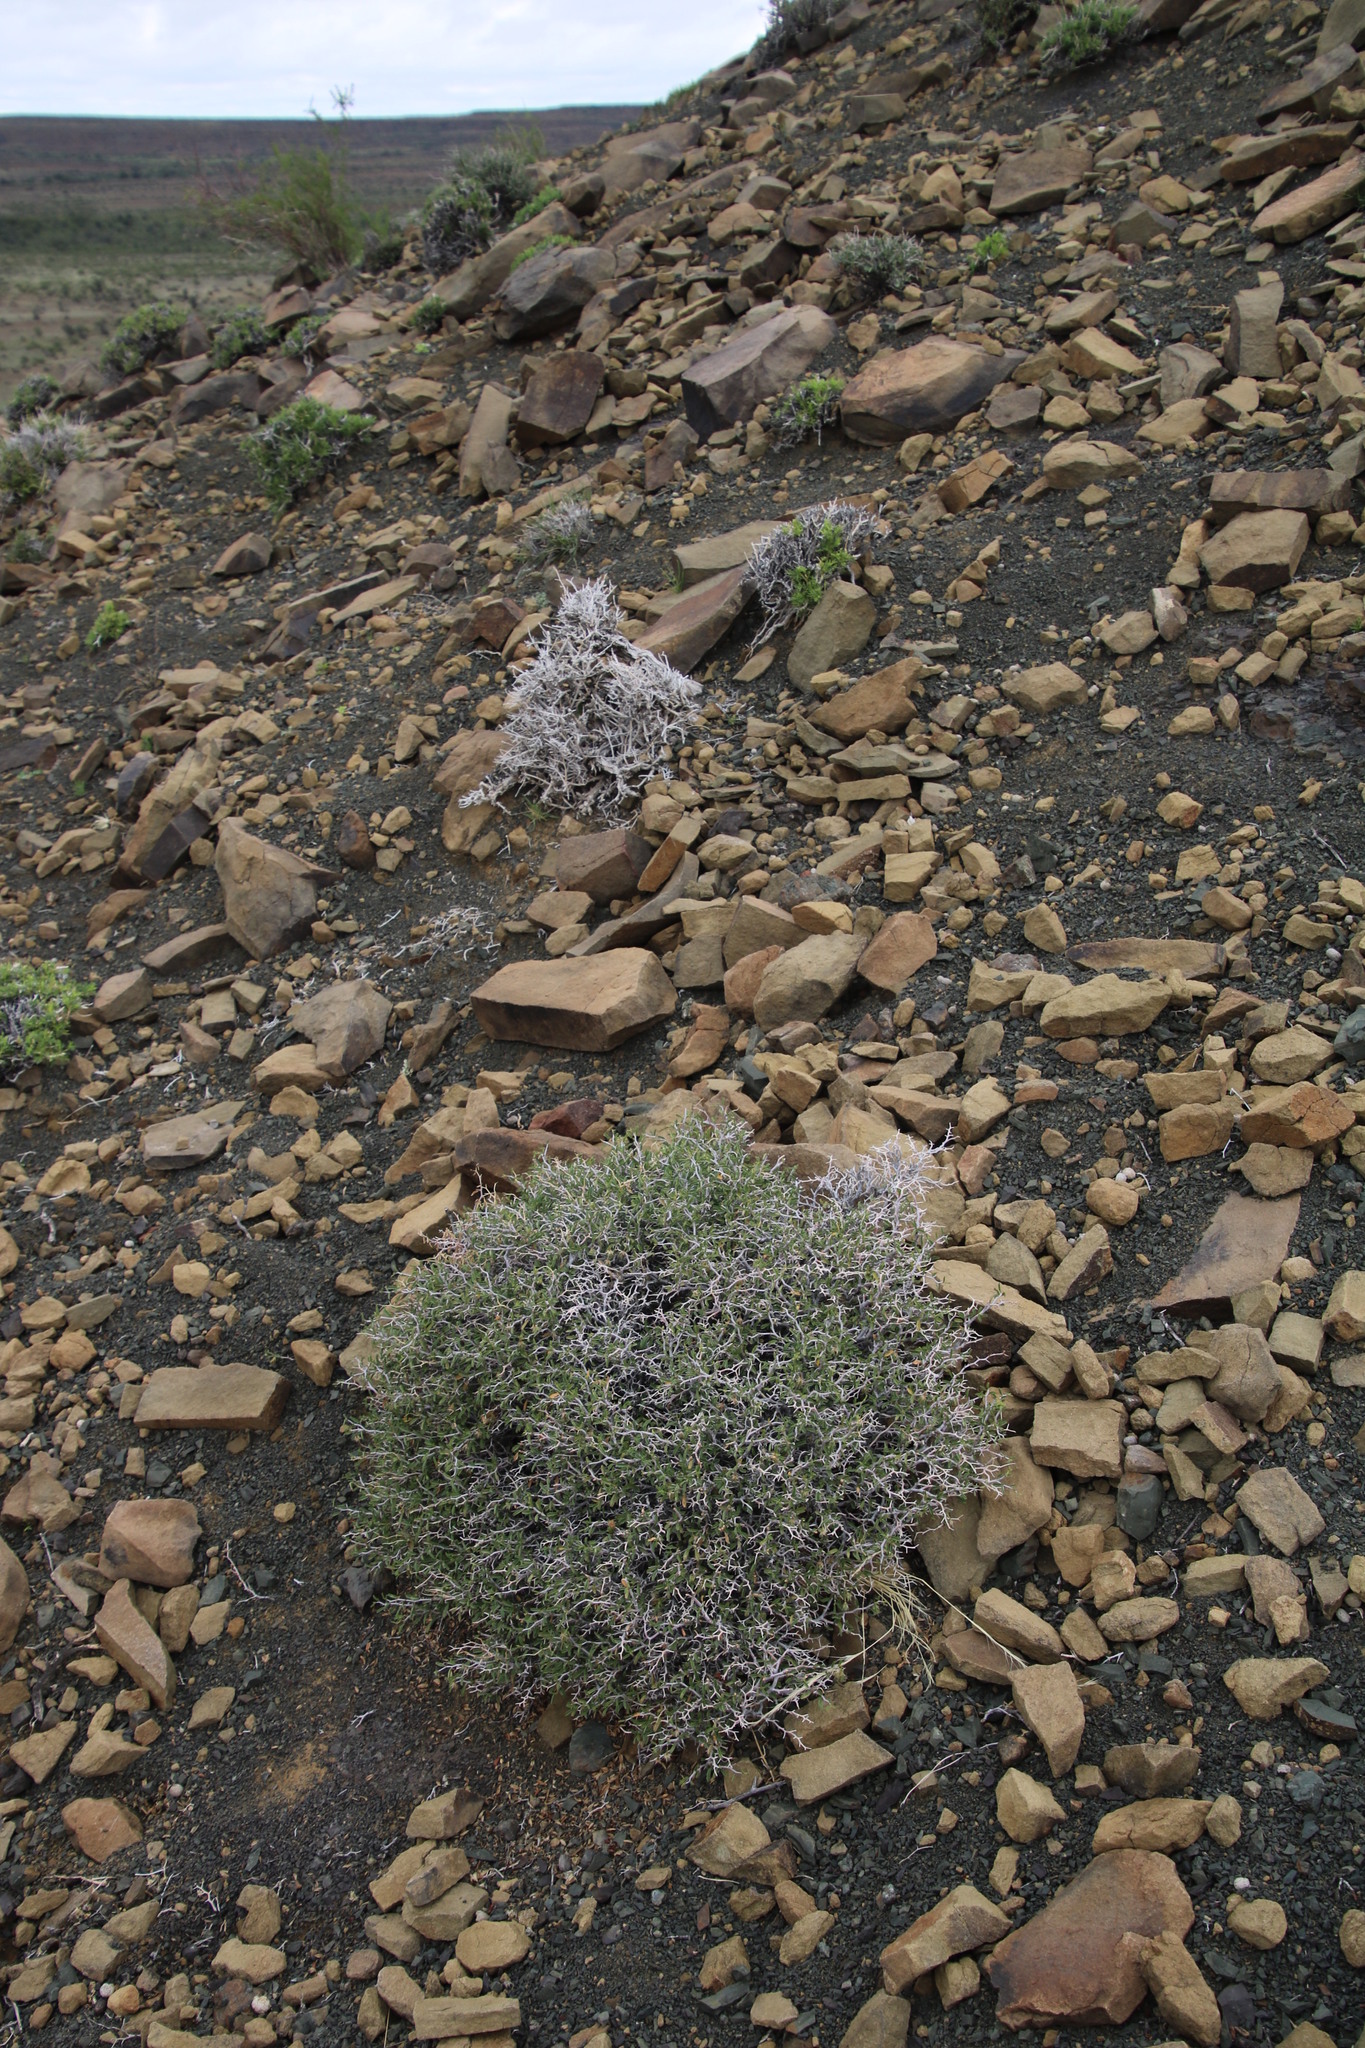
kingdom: Plantae
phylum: Tracheophyta
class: Magnoliopsida
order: Malvales
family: Malvaceae
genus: Hermannia
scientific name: Hermannia spinosa
